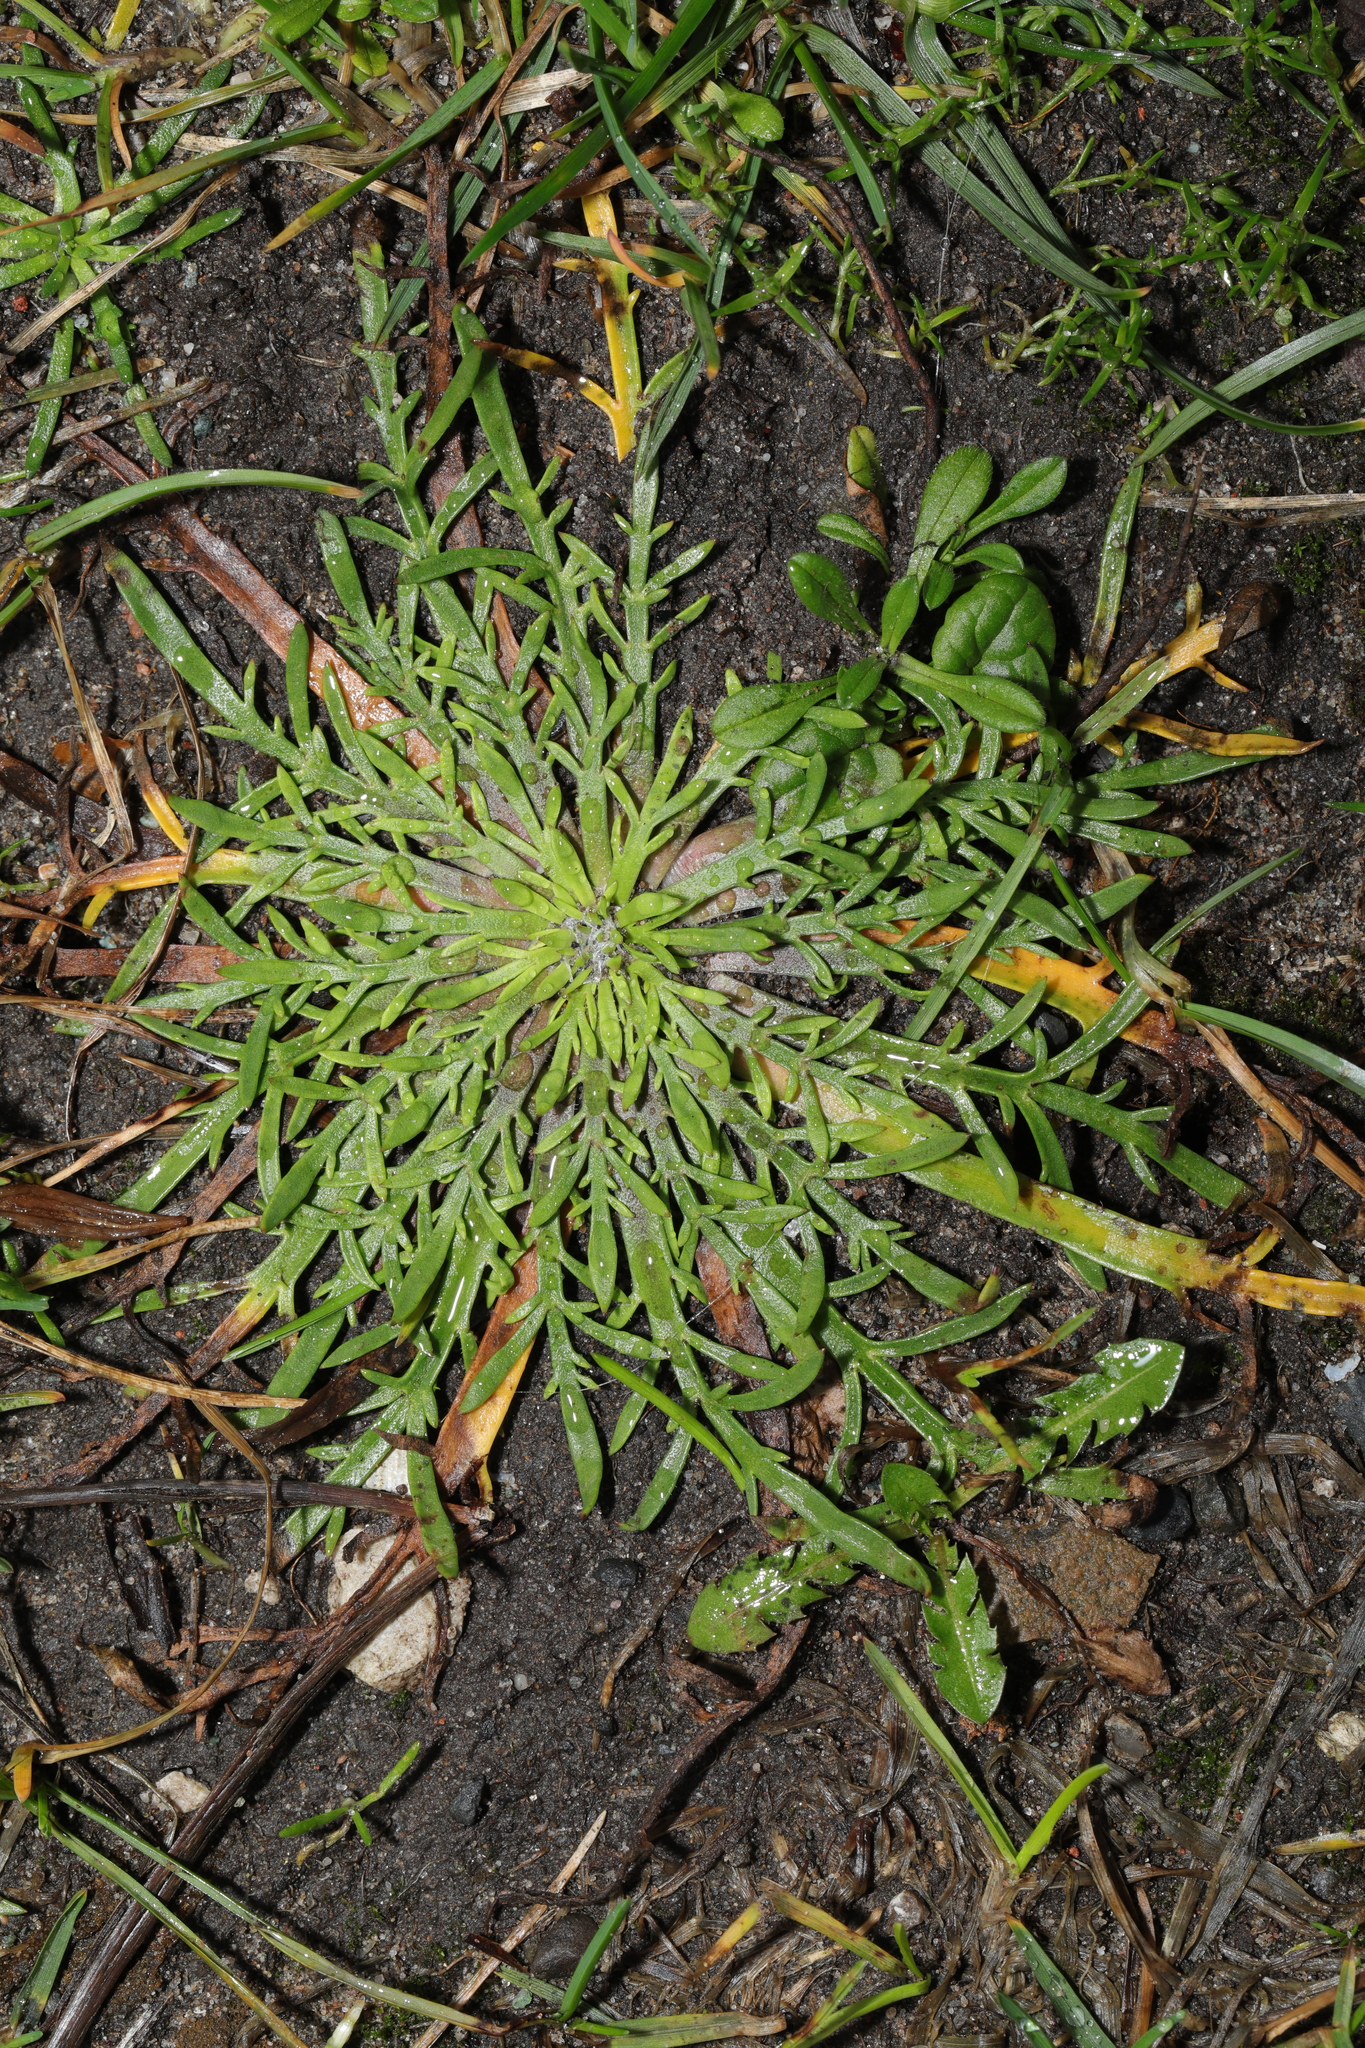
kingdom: Plantae
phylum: Tracheophyta
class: Magnoliopsida
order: Lamiales
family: Plantaginaceae
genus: Plantago
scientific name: Plantago coronopus
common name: Buck's-horn plantain
